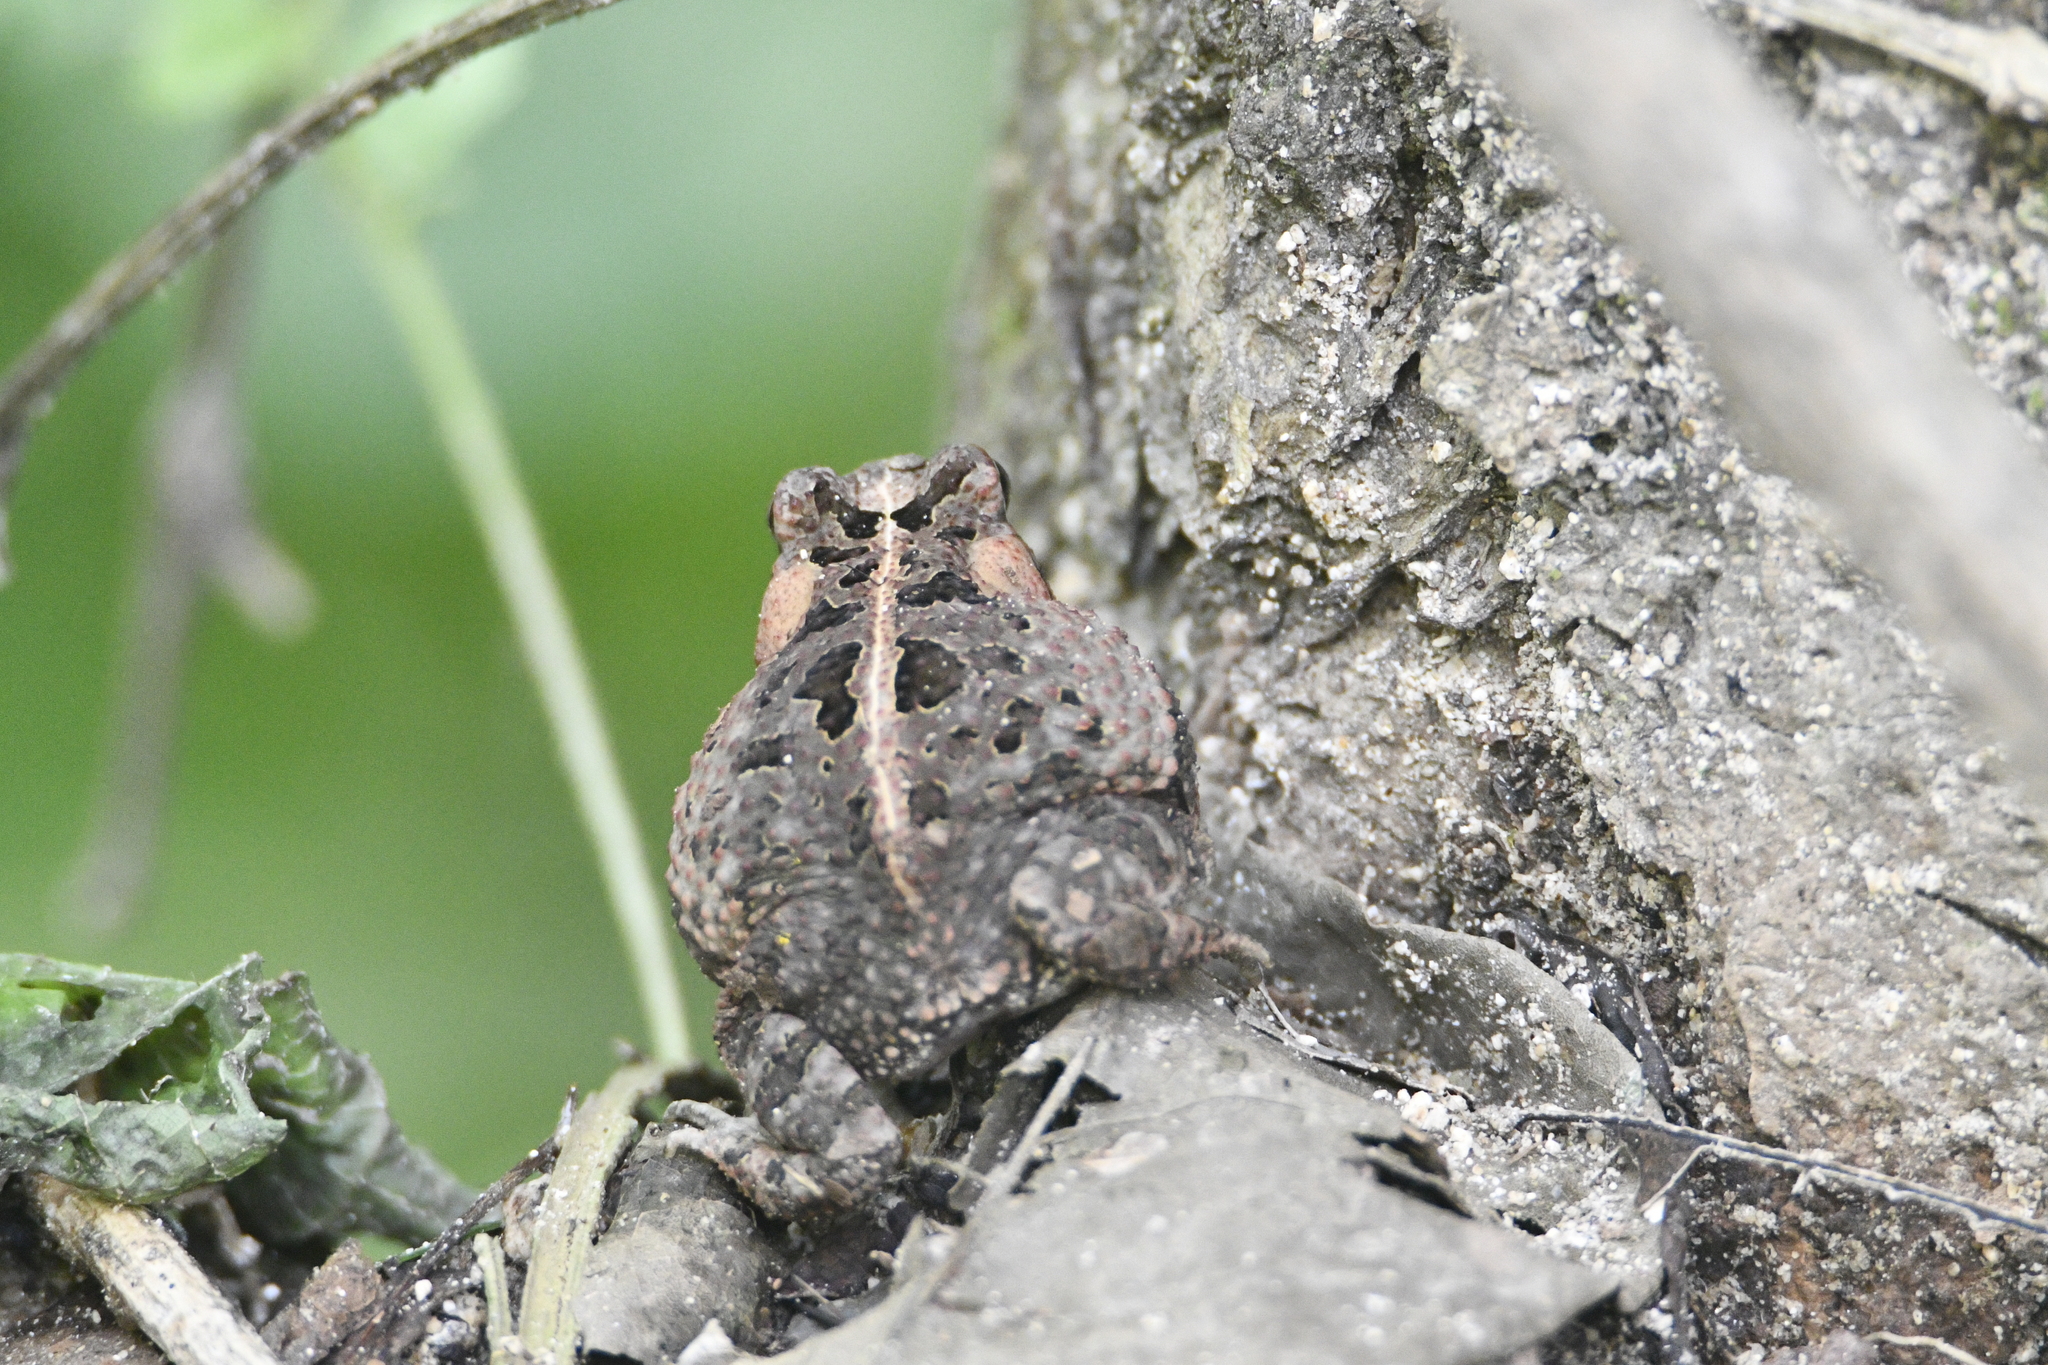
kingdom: Animalia
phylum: Chordata
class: Amphibia
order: Anura
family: Bufonidae
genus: Incilius
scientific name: Incilius marmoreus
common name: Marbled toad
